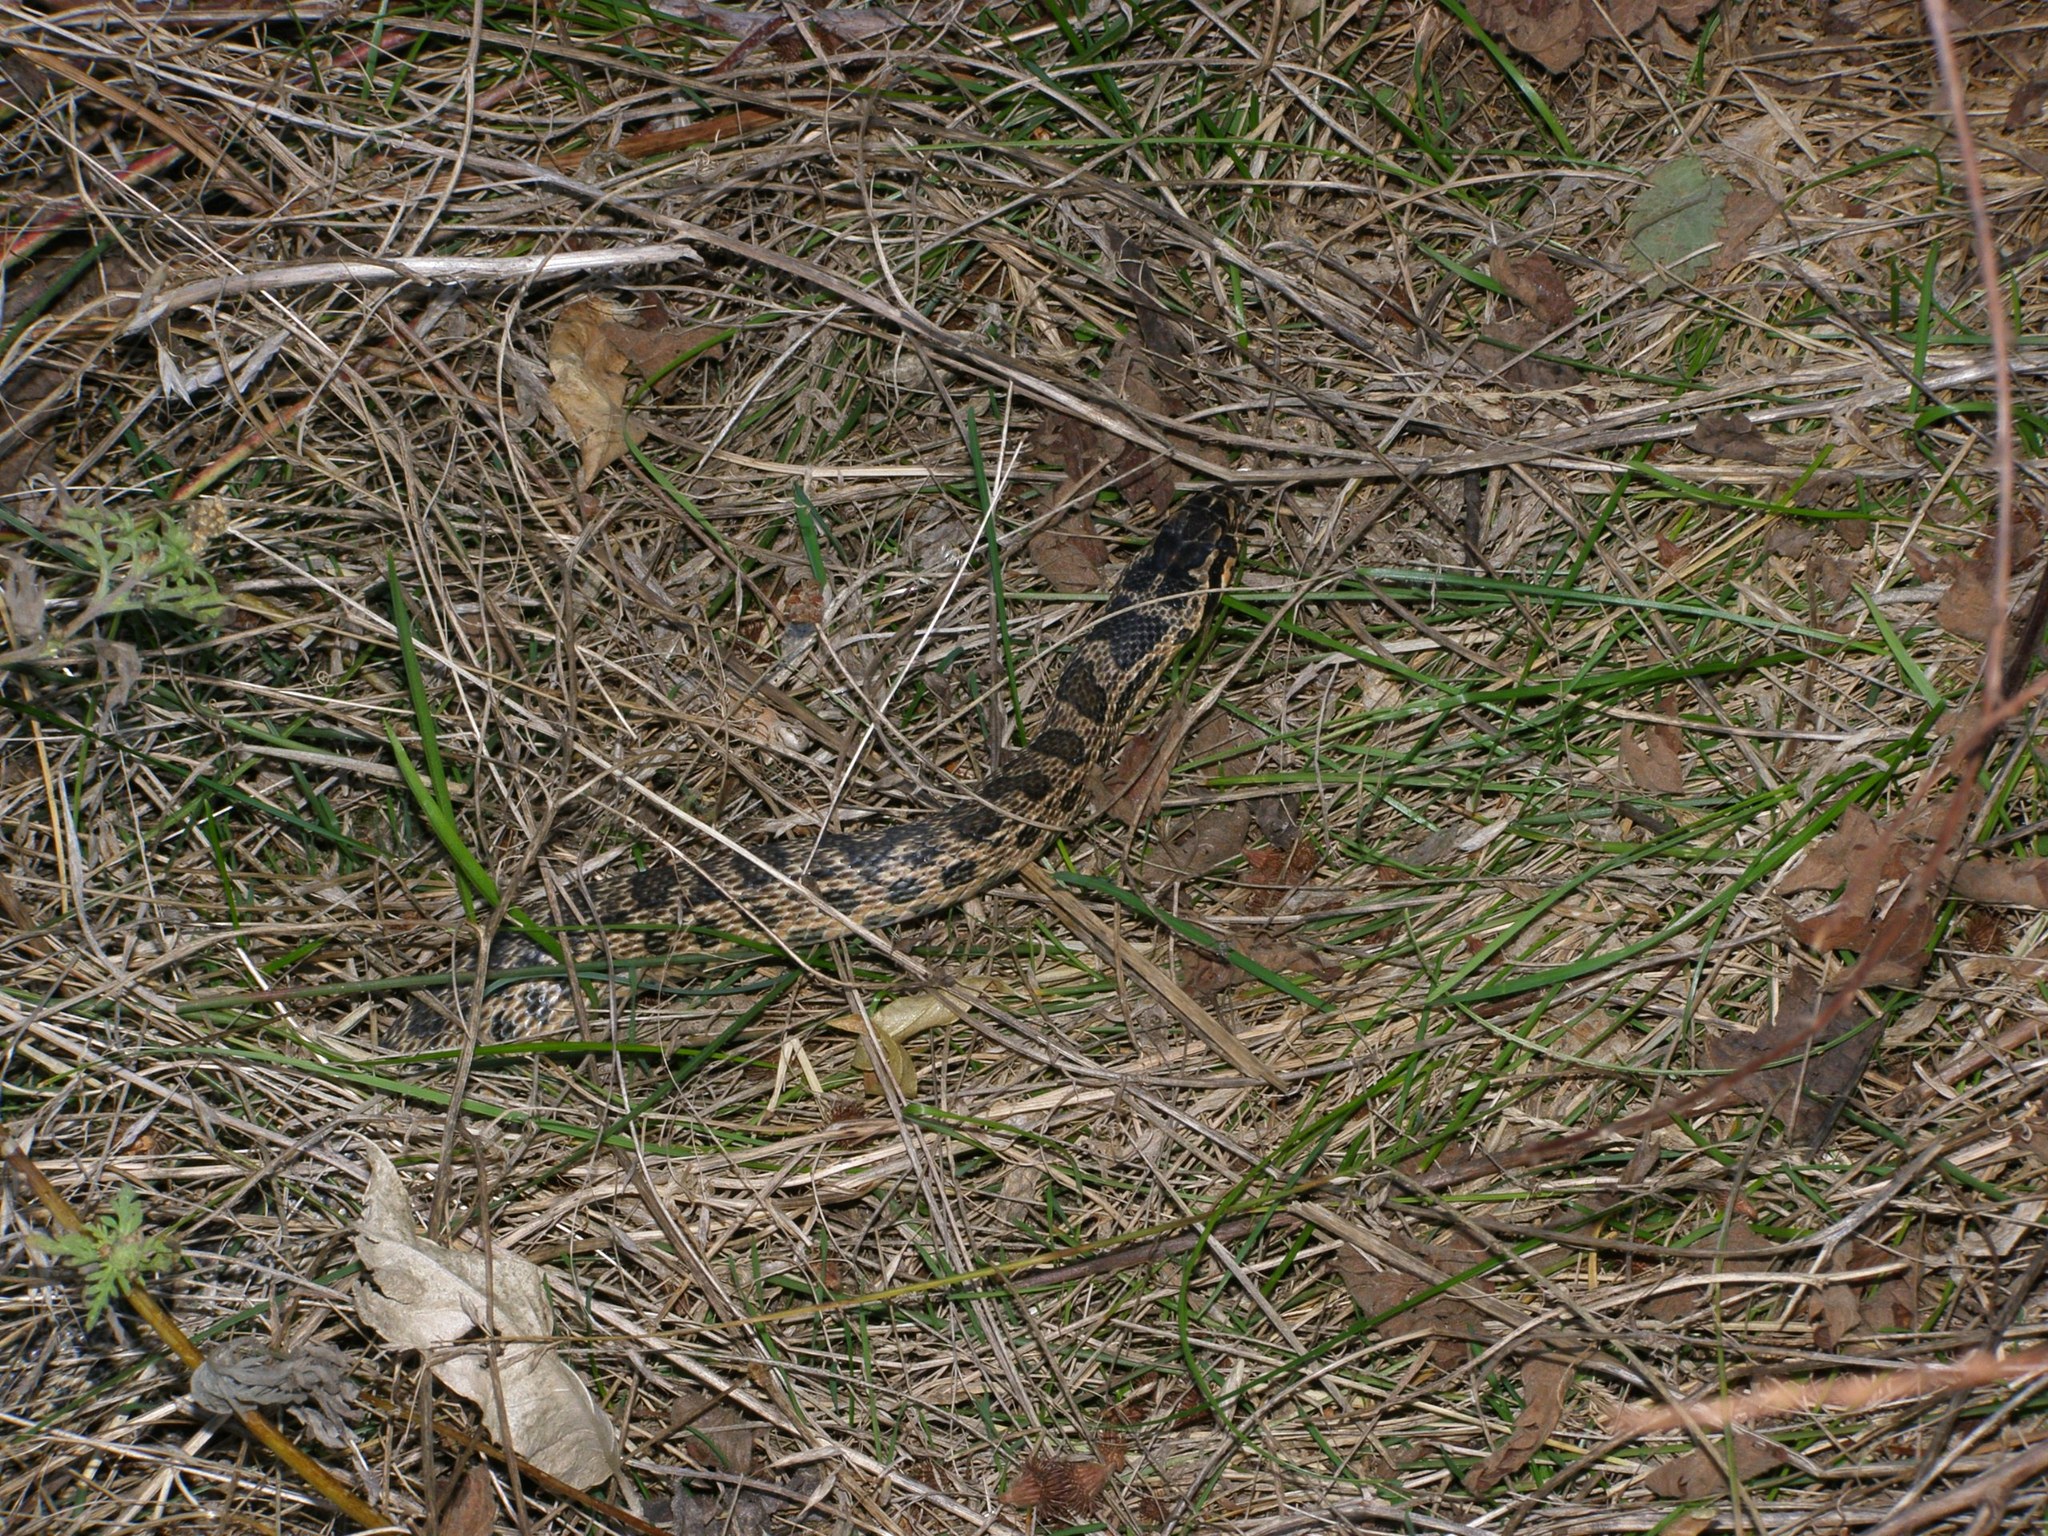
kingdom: Animalia
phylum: Chordata
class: Squamata
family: Colubridae
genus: Elaphe
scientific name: Elaphe sauromates
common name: Eastern four-lined ratsnake
